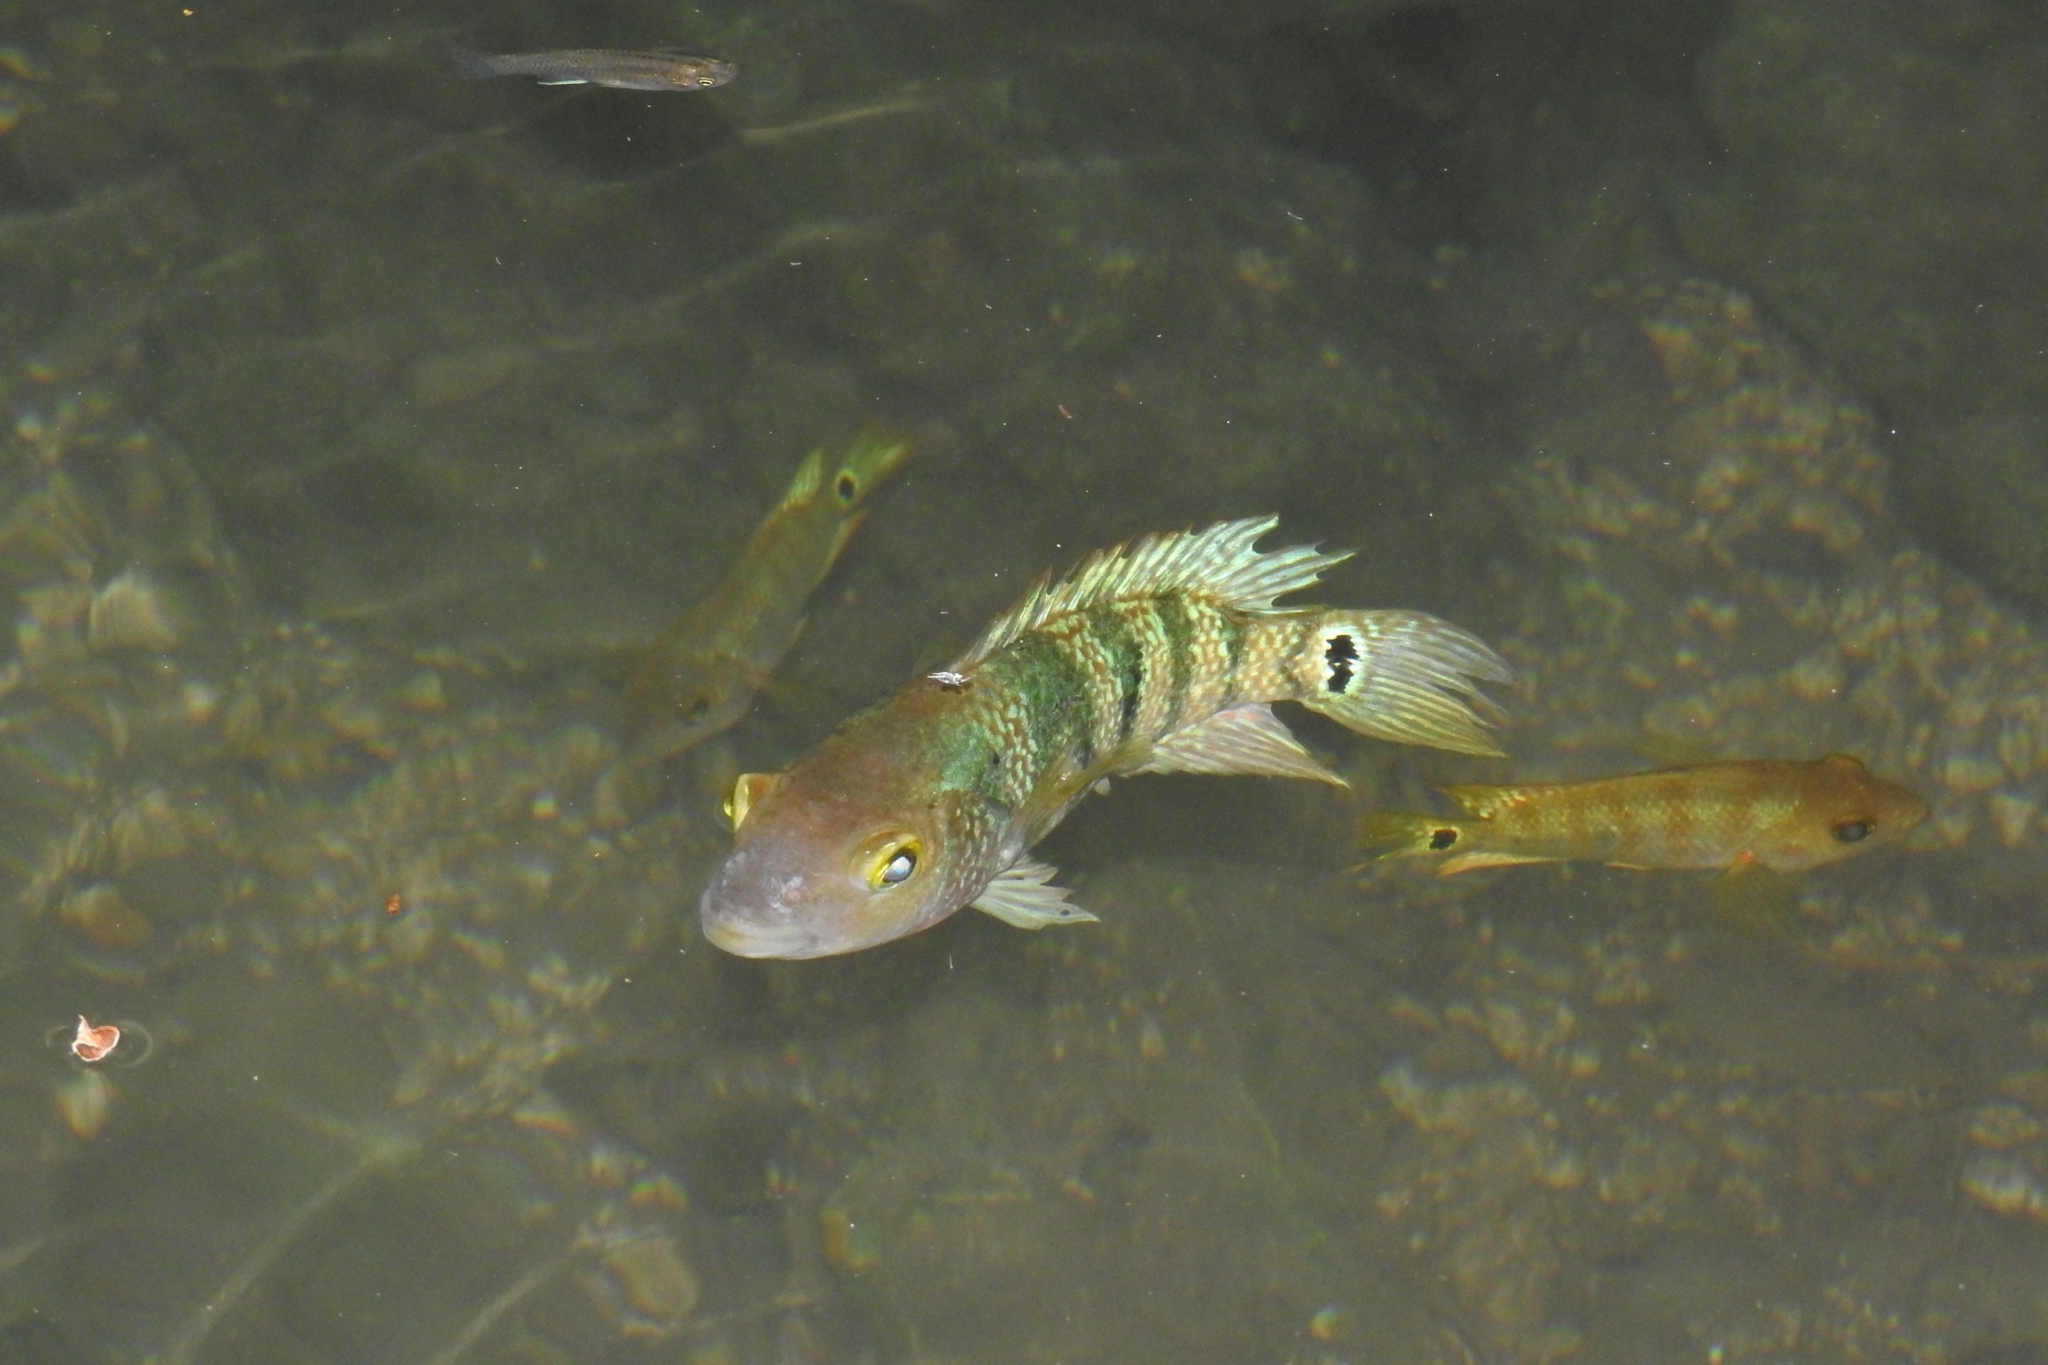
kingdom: Animalia
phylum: Chordata
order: Perciformes
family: Cichlidae
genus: Mayaheros
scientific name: Mayaheros urophthalmus
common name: Mayan cichlid
